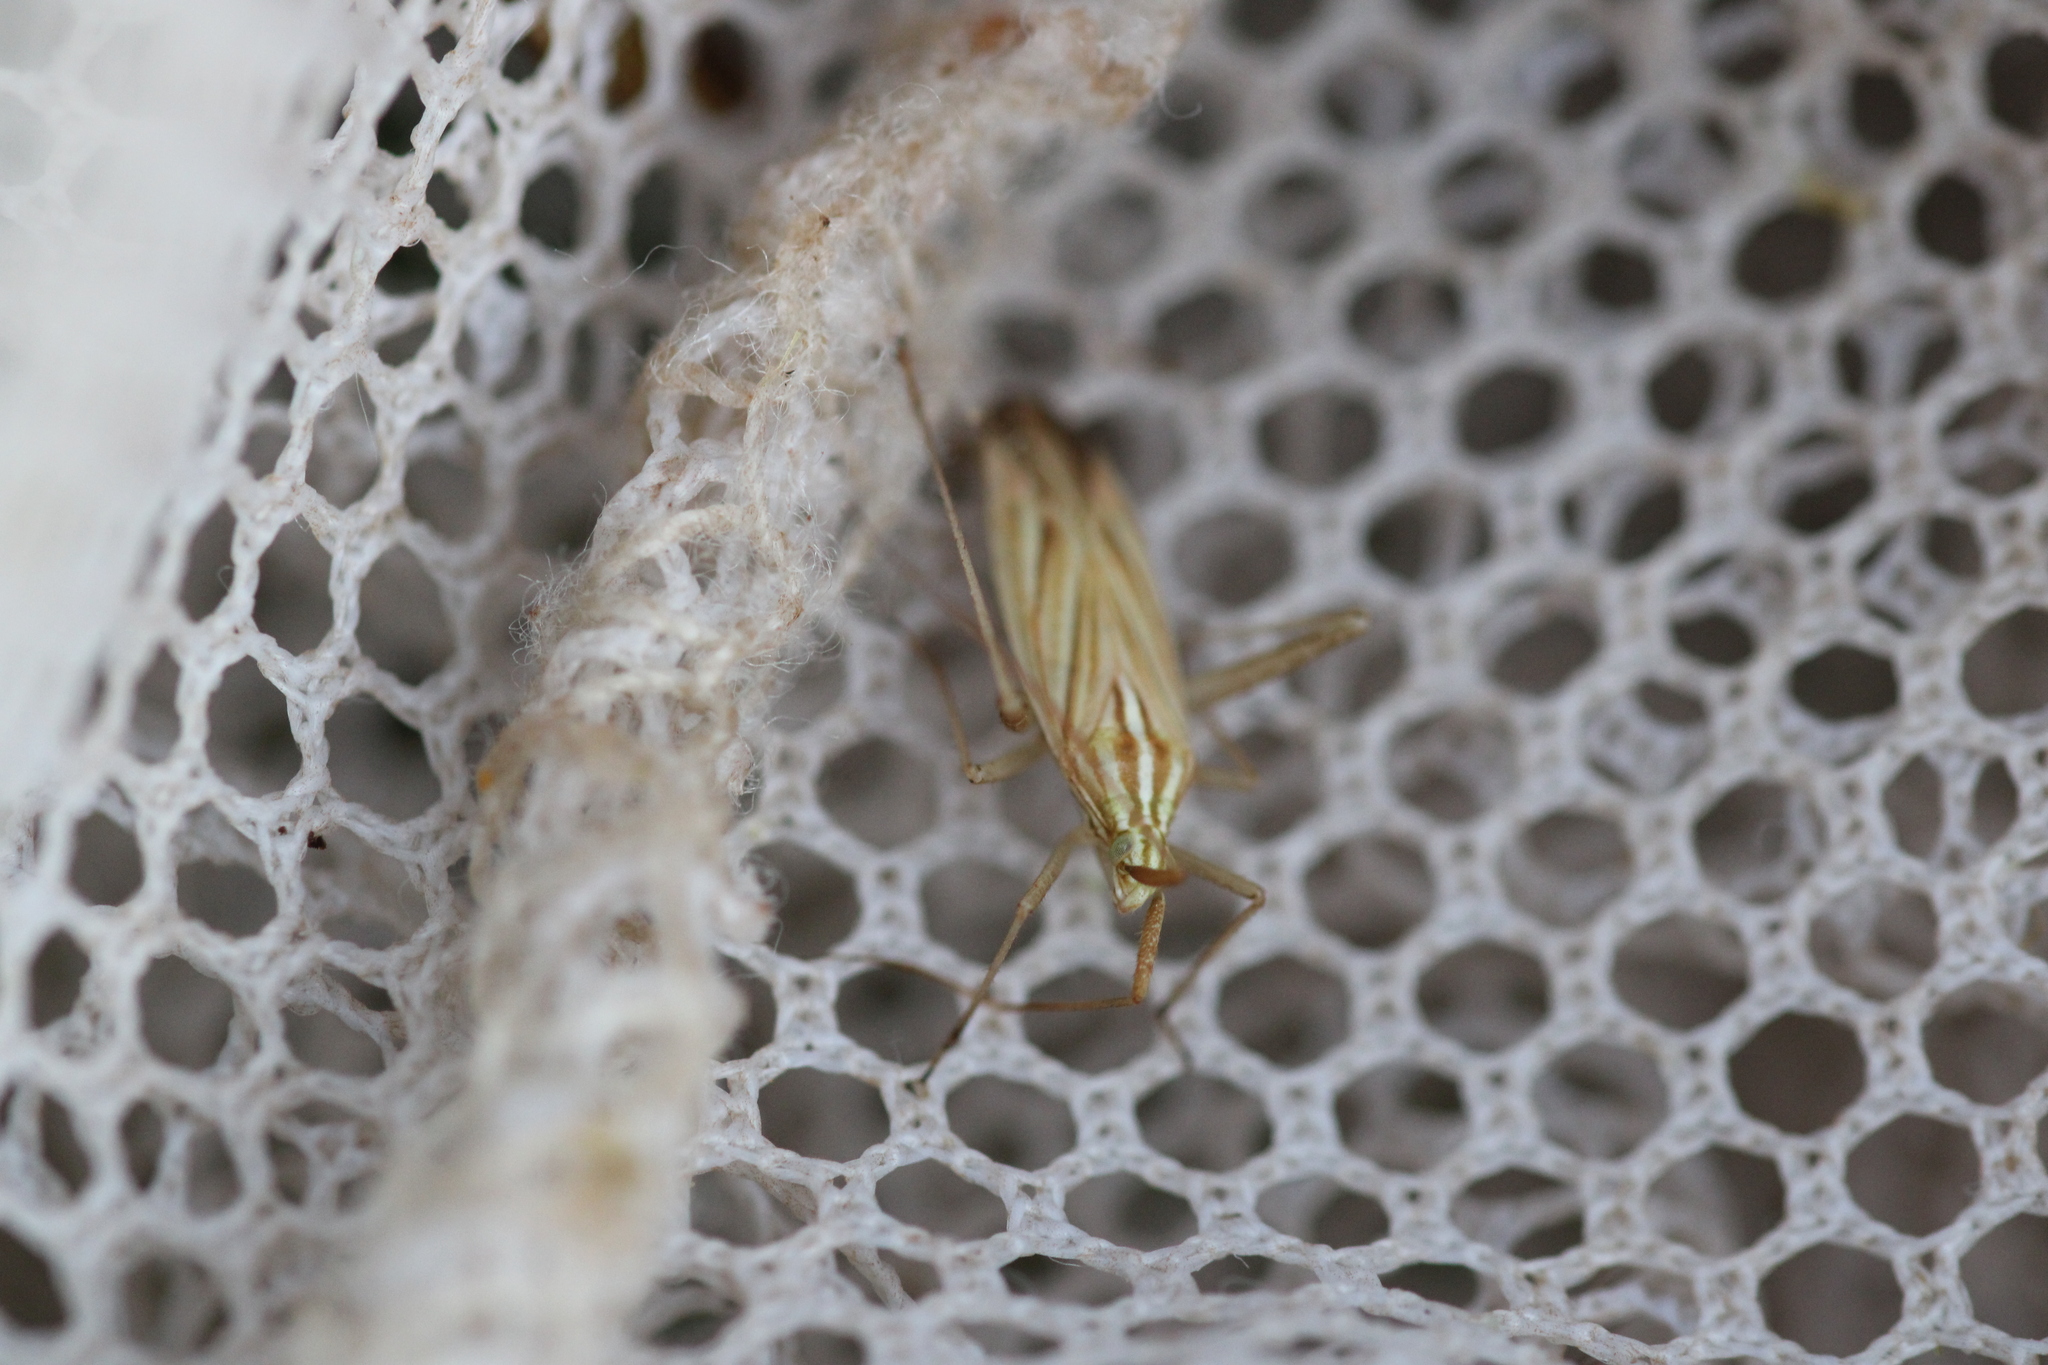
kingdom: Animalia
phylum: Arthropoda
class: Insecta
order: Hemiptera
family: Miridae
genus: Miridius
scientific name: Miridius quadrivirgatus
